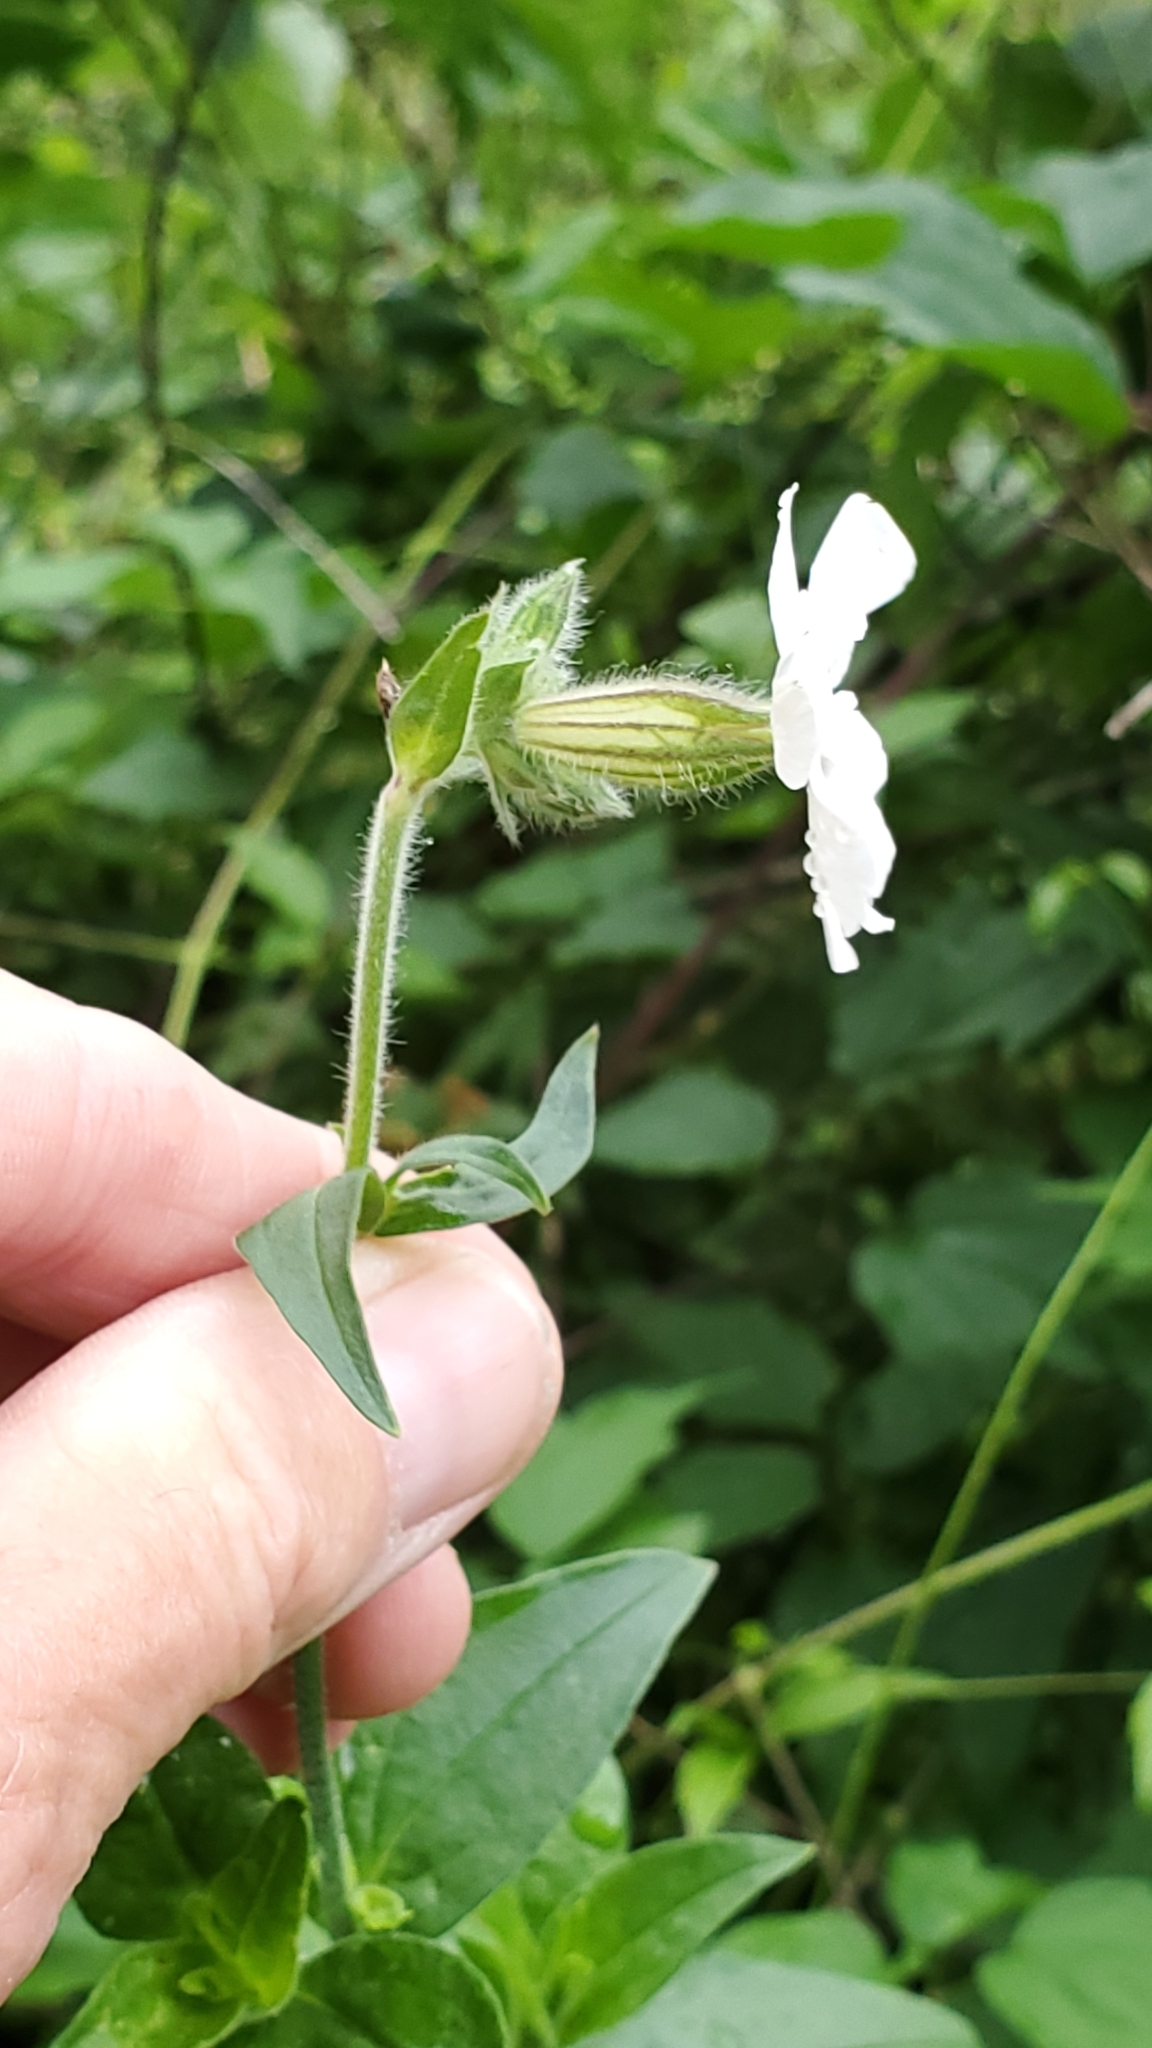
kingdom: Plantae
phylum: Tracheophyta
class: Magnoliopsida
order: Caryophyllales
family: Caryophyllaceae
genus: Silene
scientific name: Silene latifolia
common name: White campion
